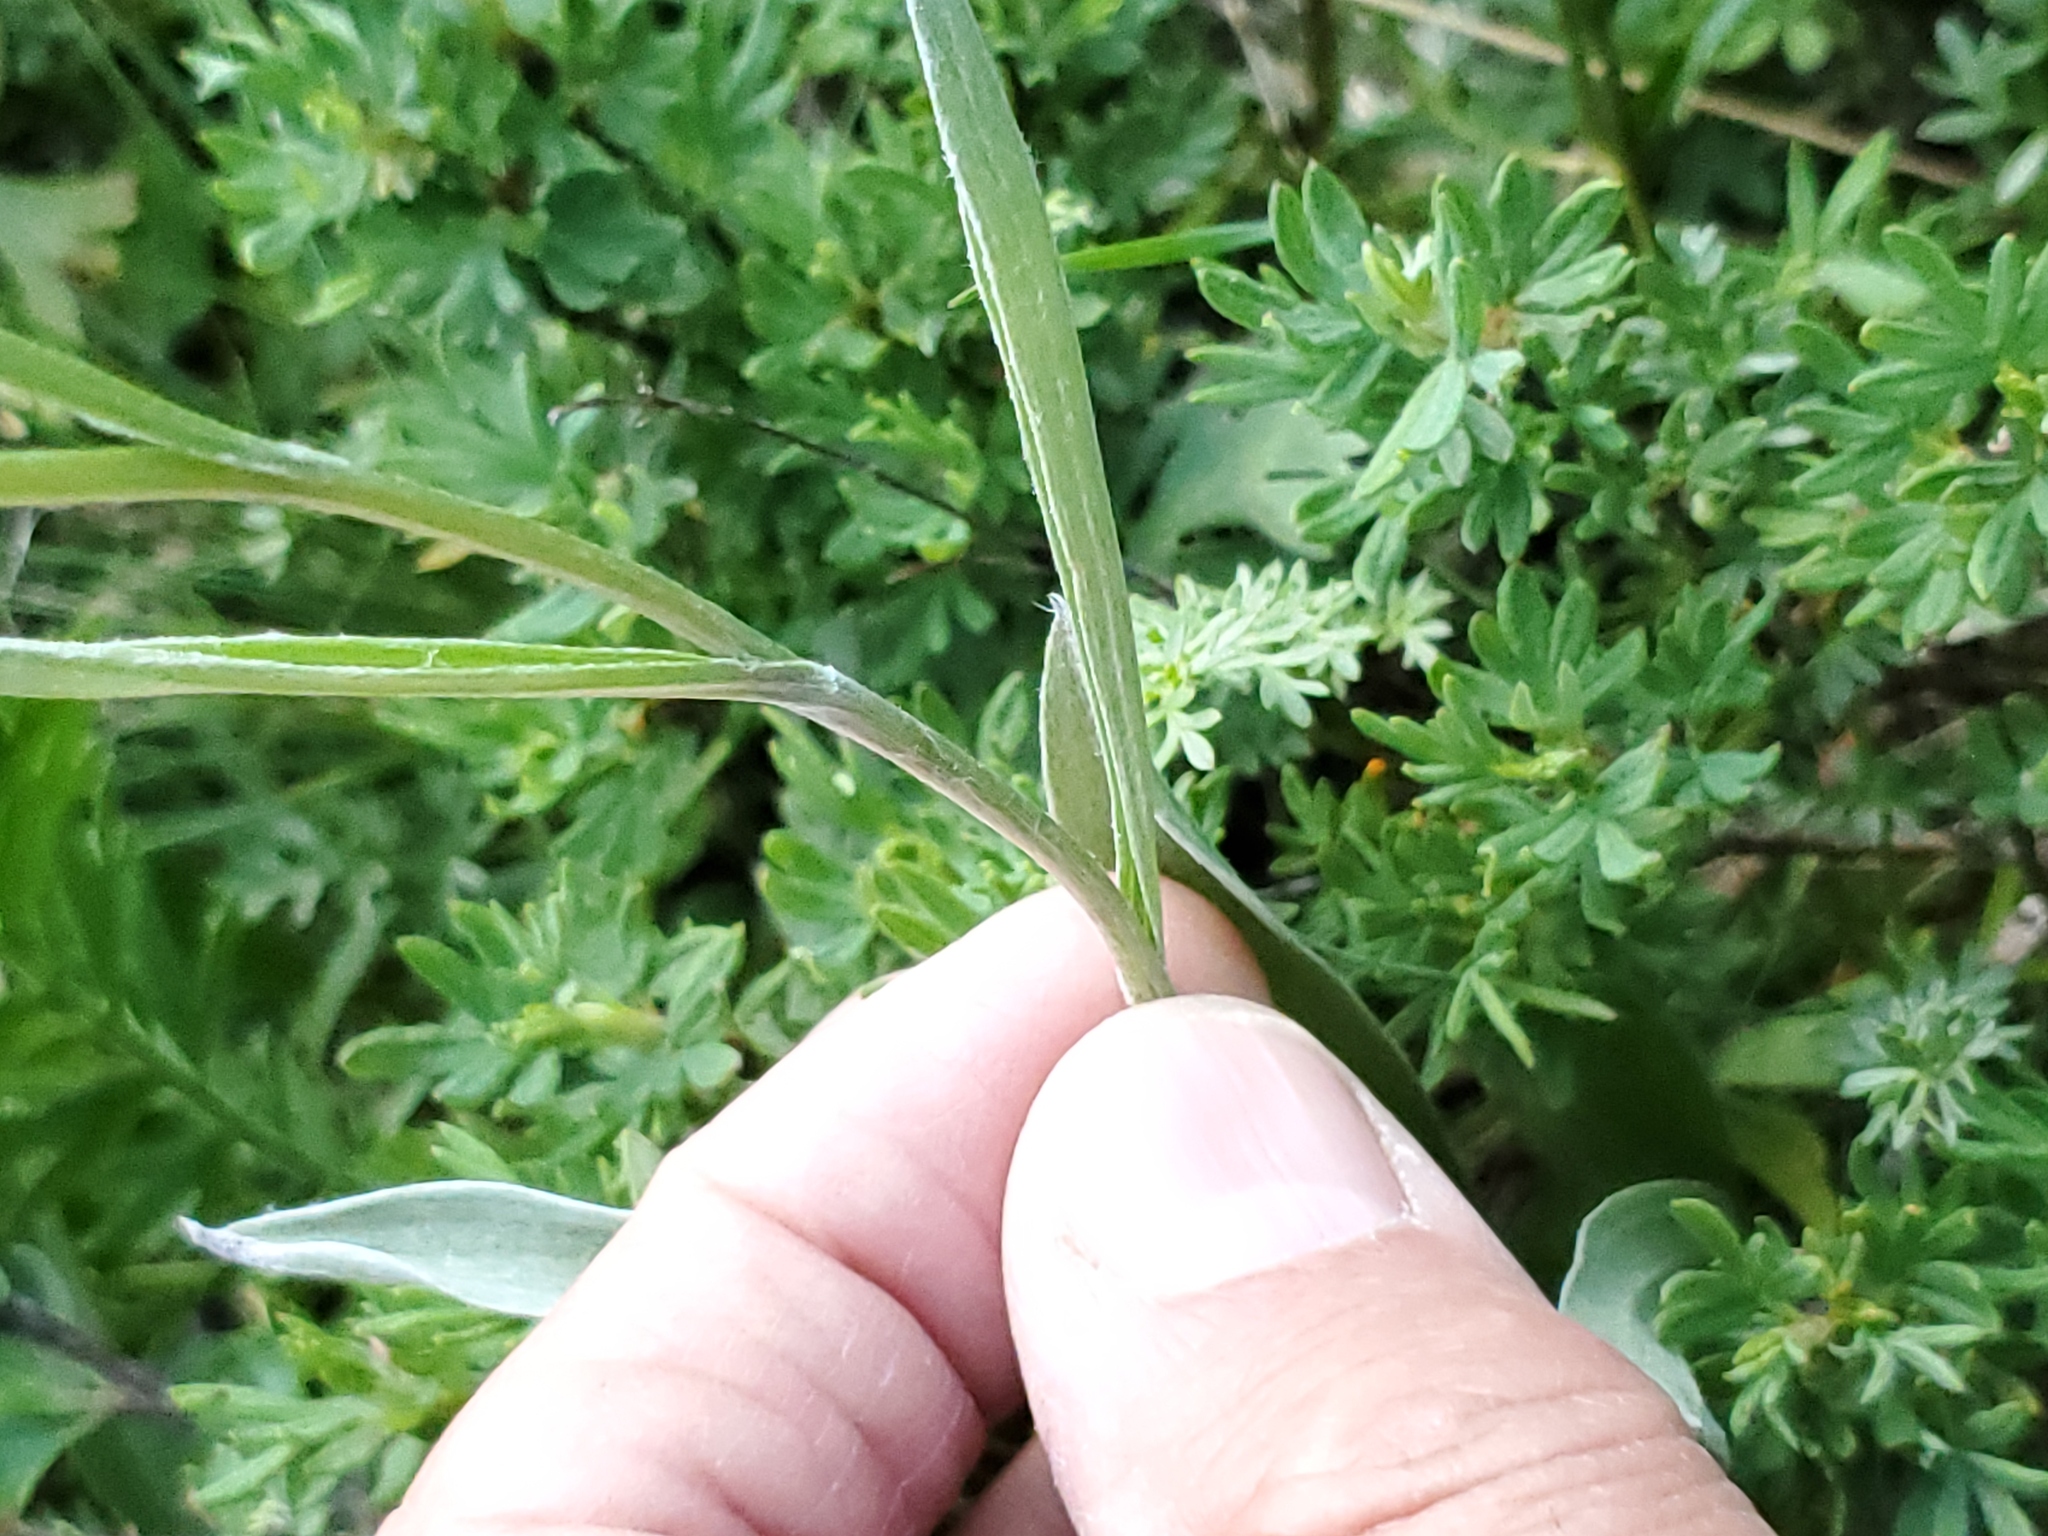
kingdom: Plantae
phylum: Tracheophyta
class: Magnoliopsida
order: Asterales
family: Asteraceae
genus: Anaphalis
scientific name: Anaphalis margaritacea
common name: Pearly everlasting
